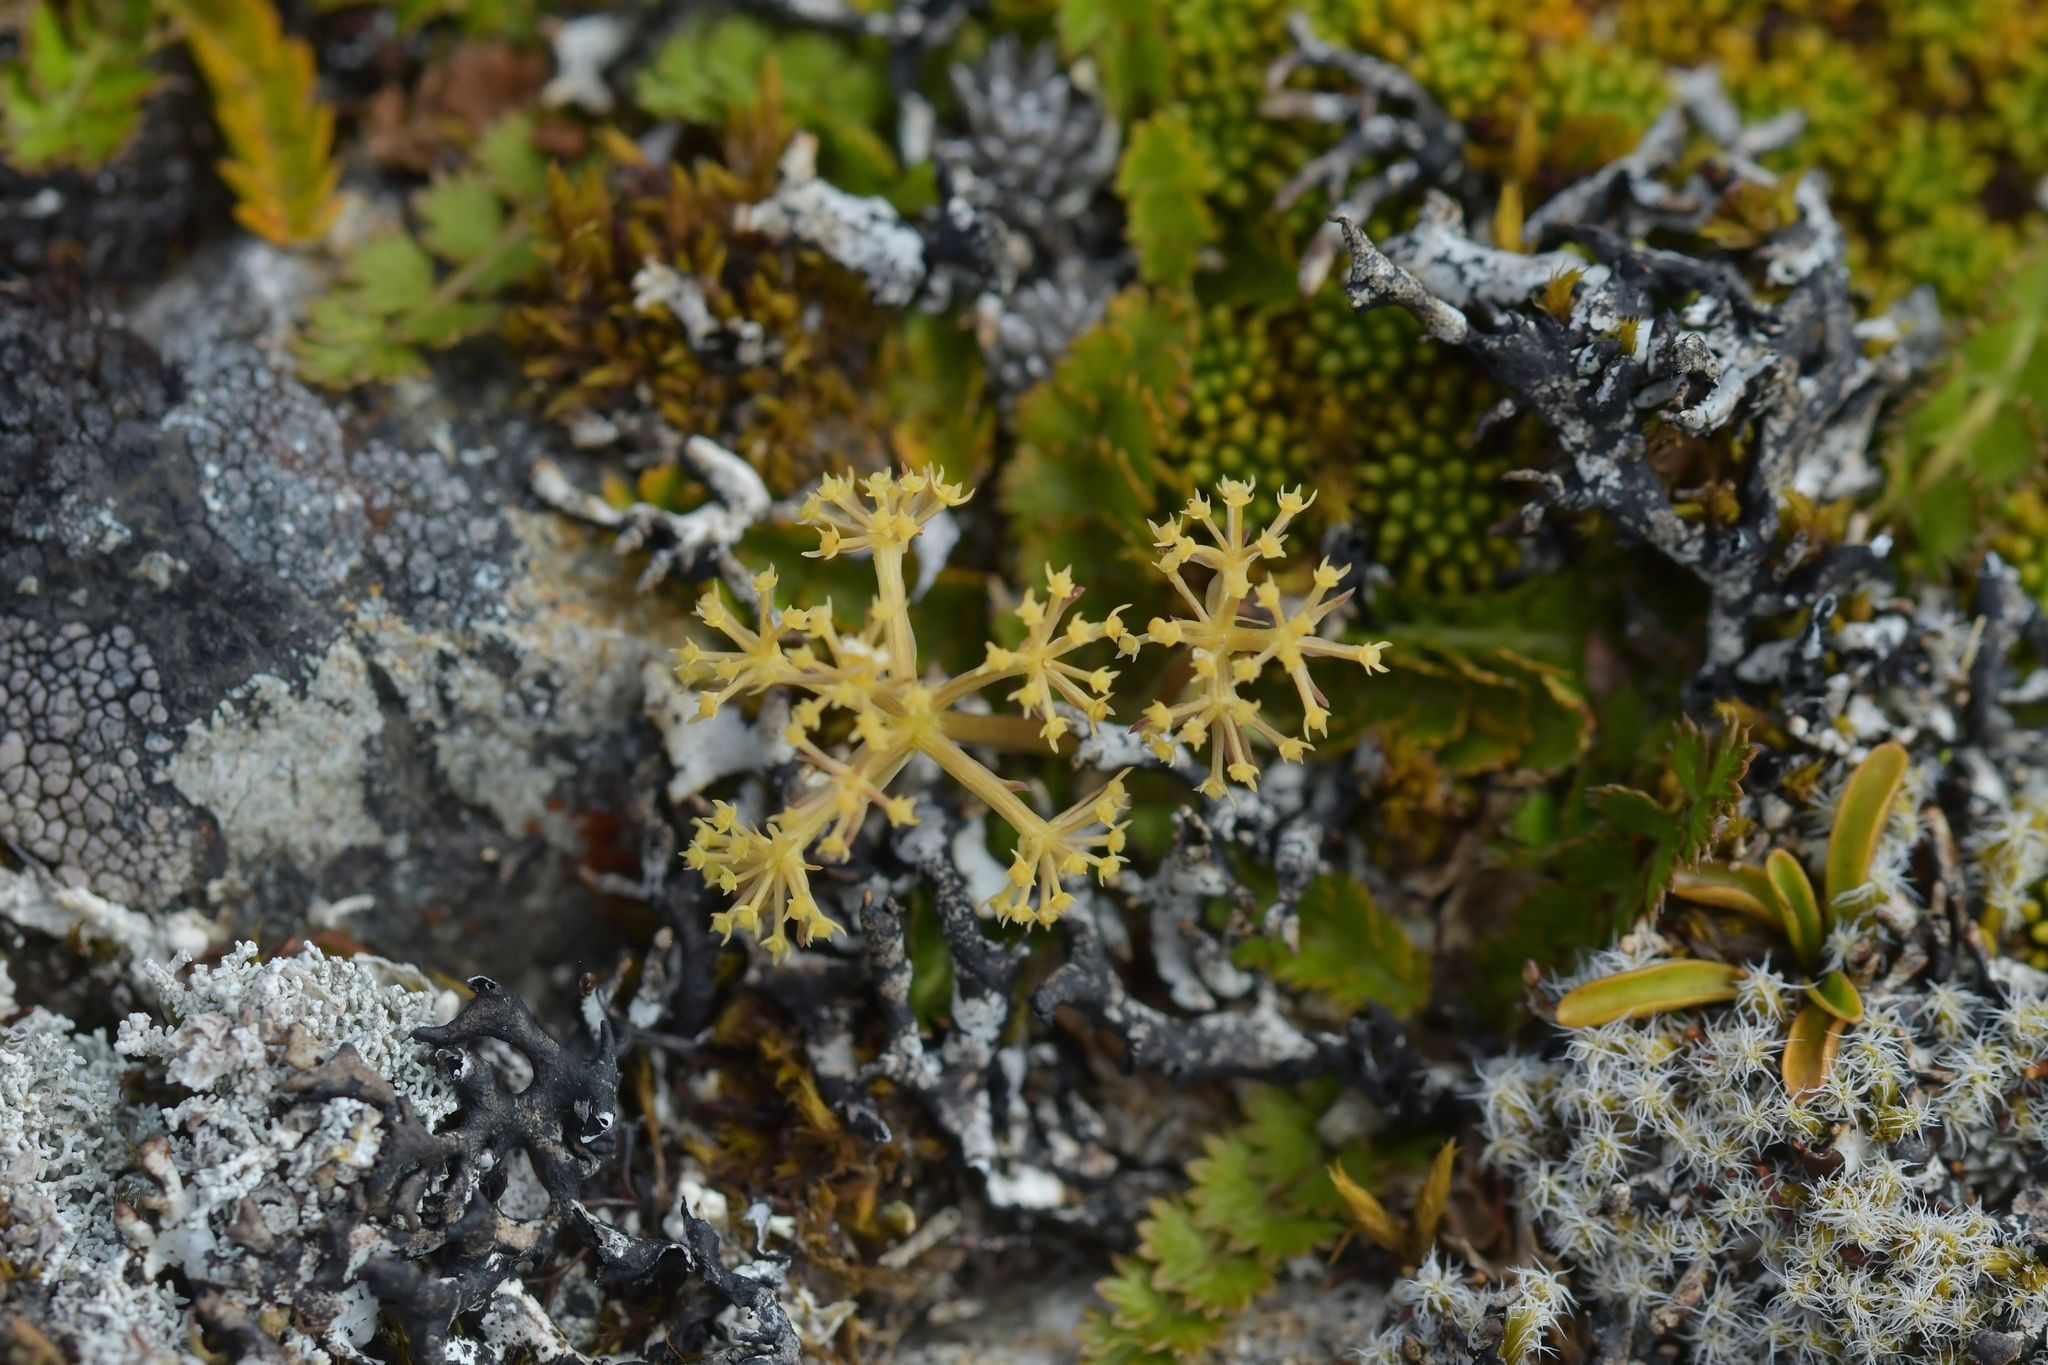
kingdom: Plantae
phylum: Tracheophyta
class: Magnoliopsida
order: Apiales
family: Apiaceae
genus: Anisotome
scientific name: Anisotome aromatica
